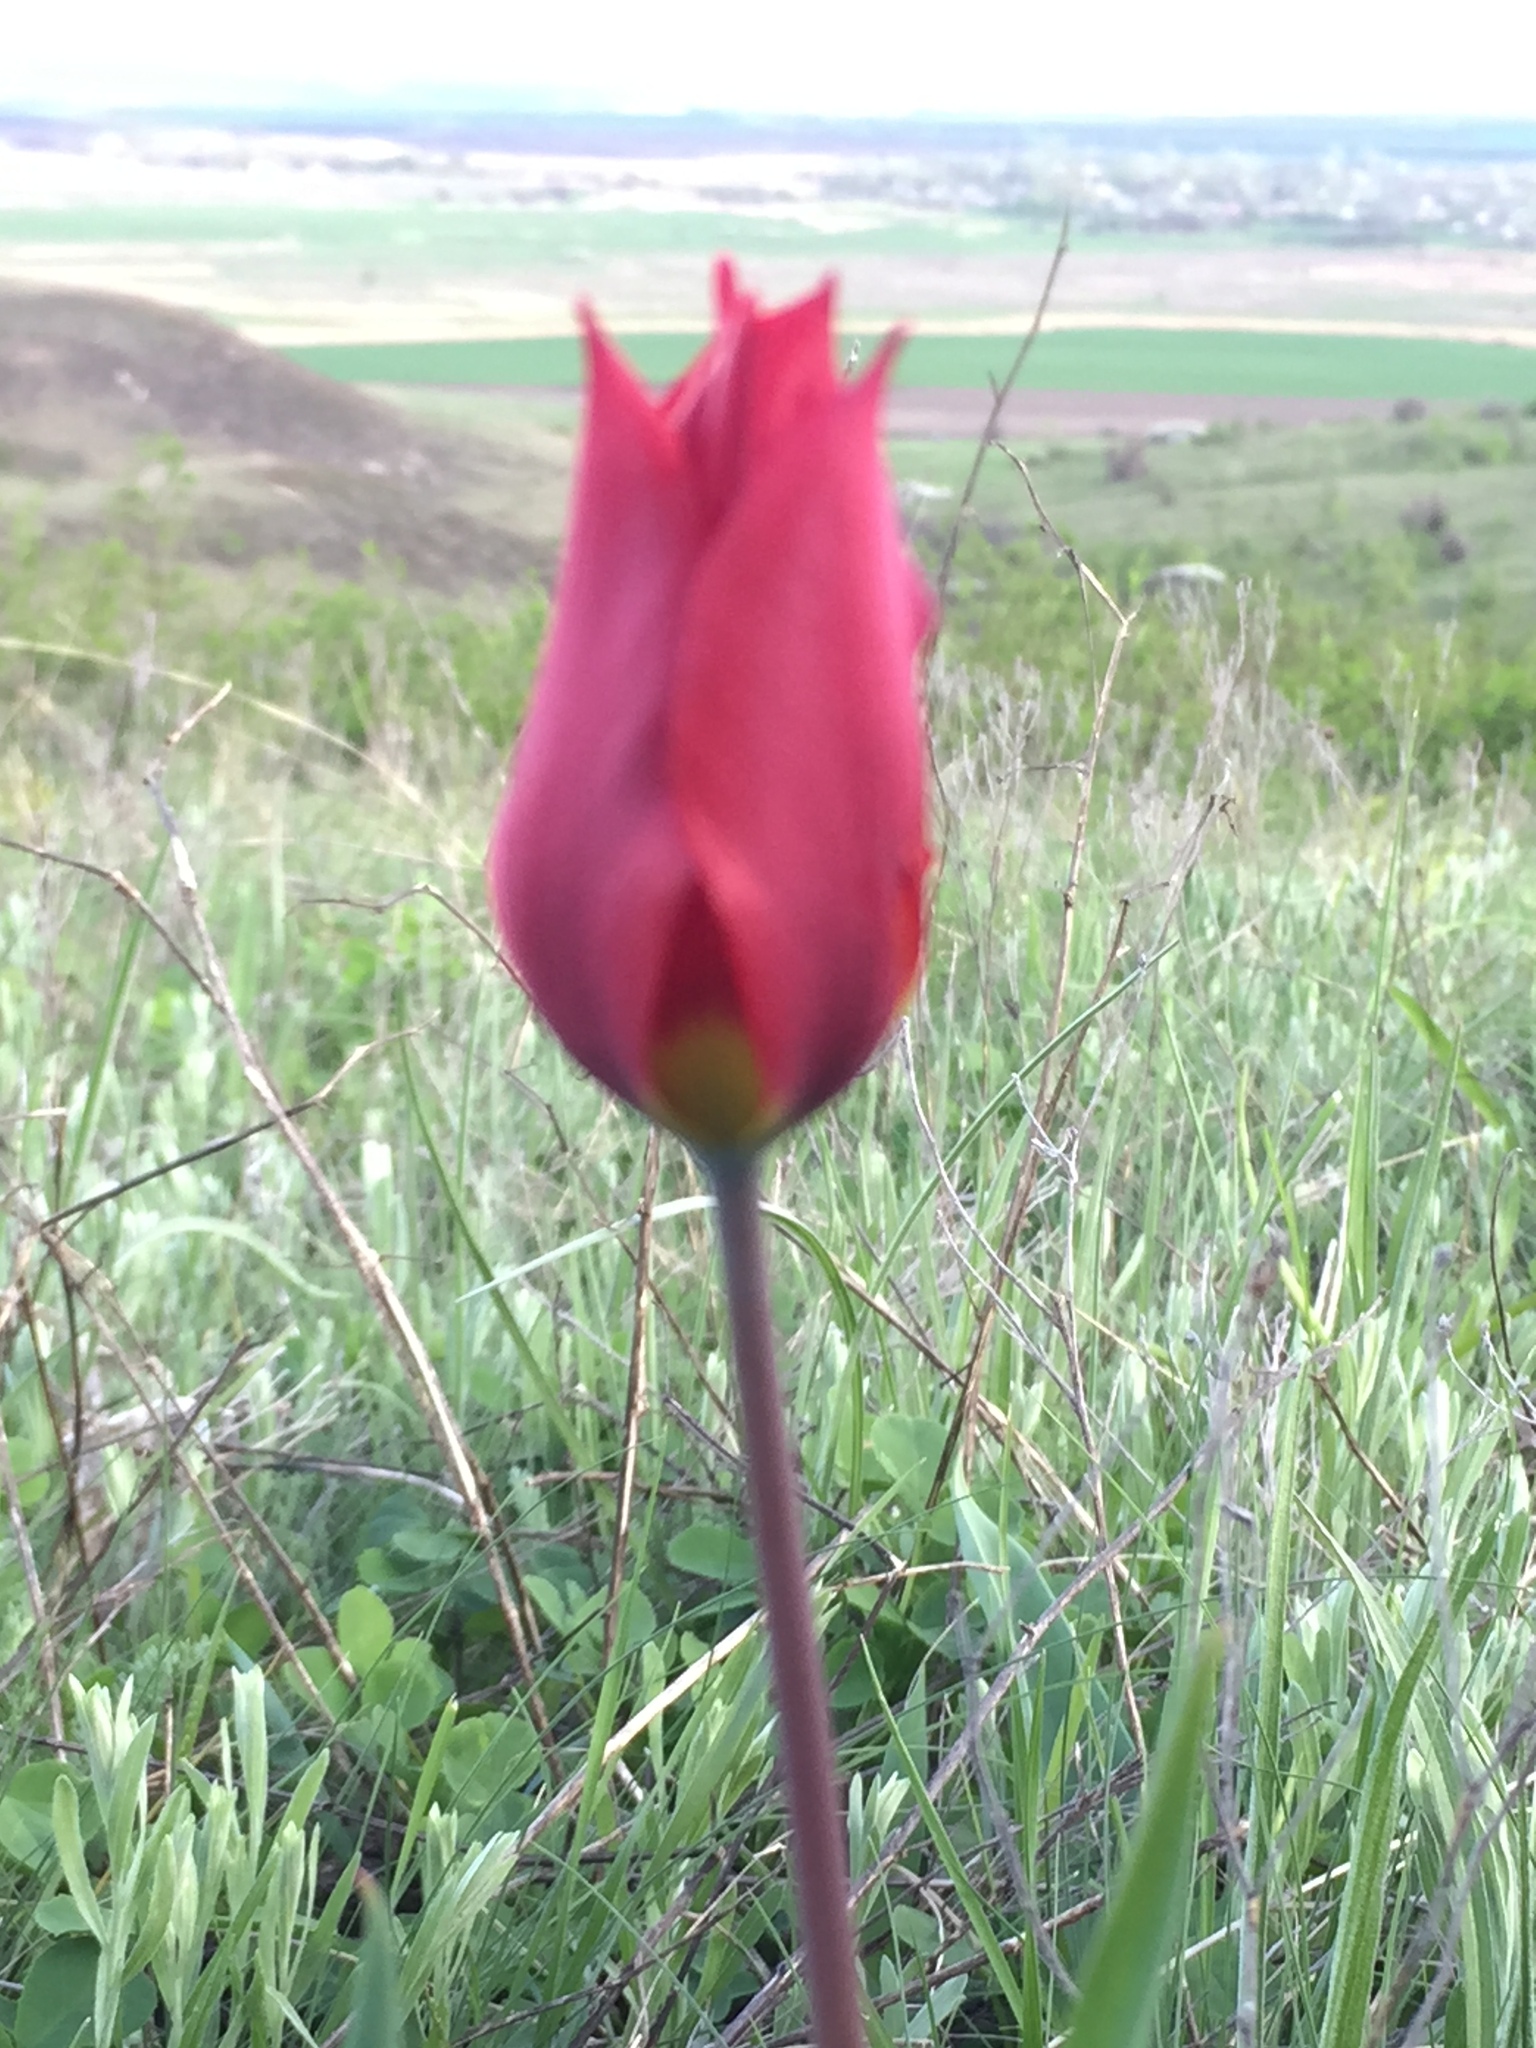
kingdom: Plantae
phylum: Tracheophyta
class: Liliopsida
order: Liliales
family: Liliaceae
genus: Tulipa
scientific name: Tulipa suaveolens
